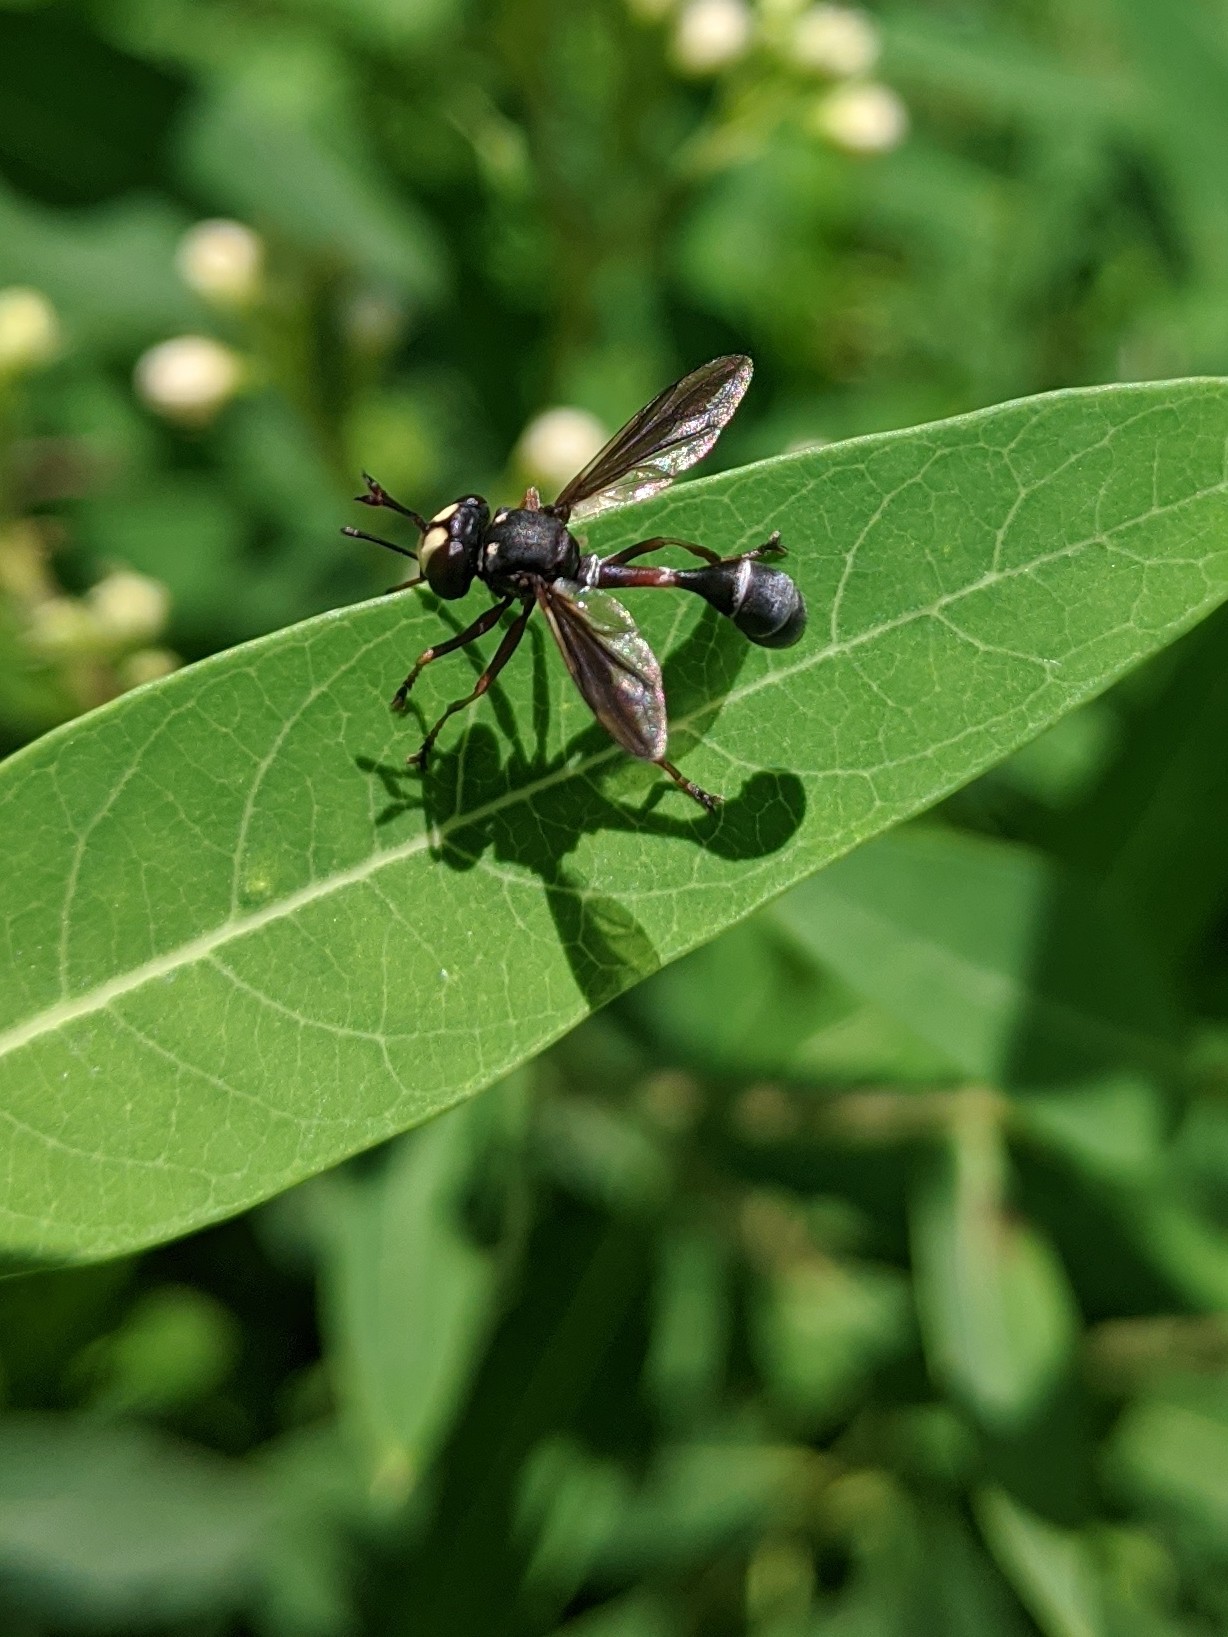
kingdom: Animalia
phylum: Arthropoda
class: Insecta
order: Diptera
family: Conopidae
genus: Physocephala
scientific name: Physocephala furcillata
